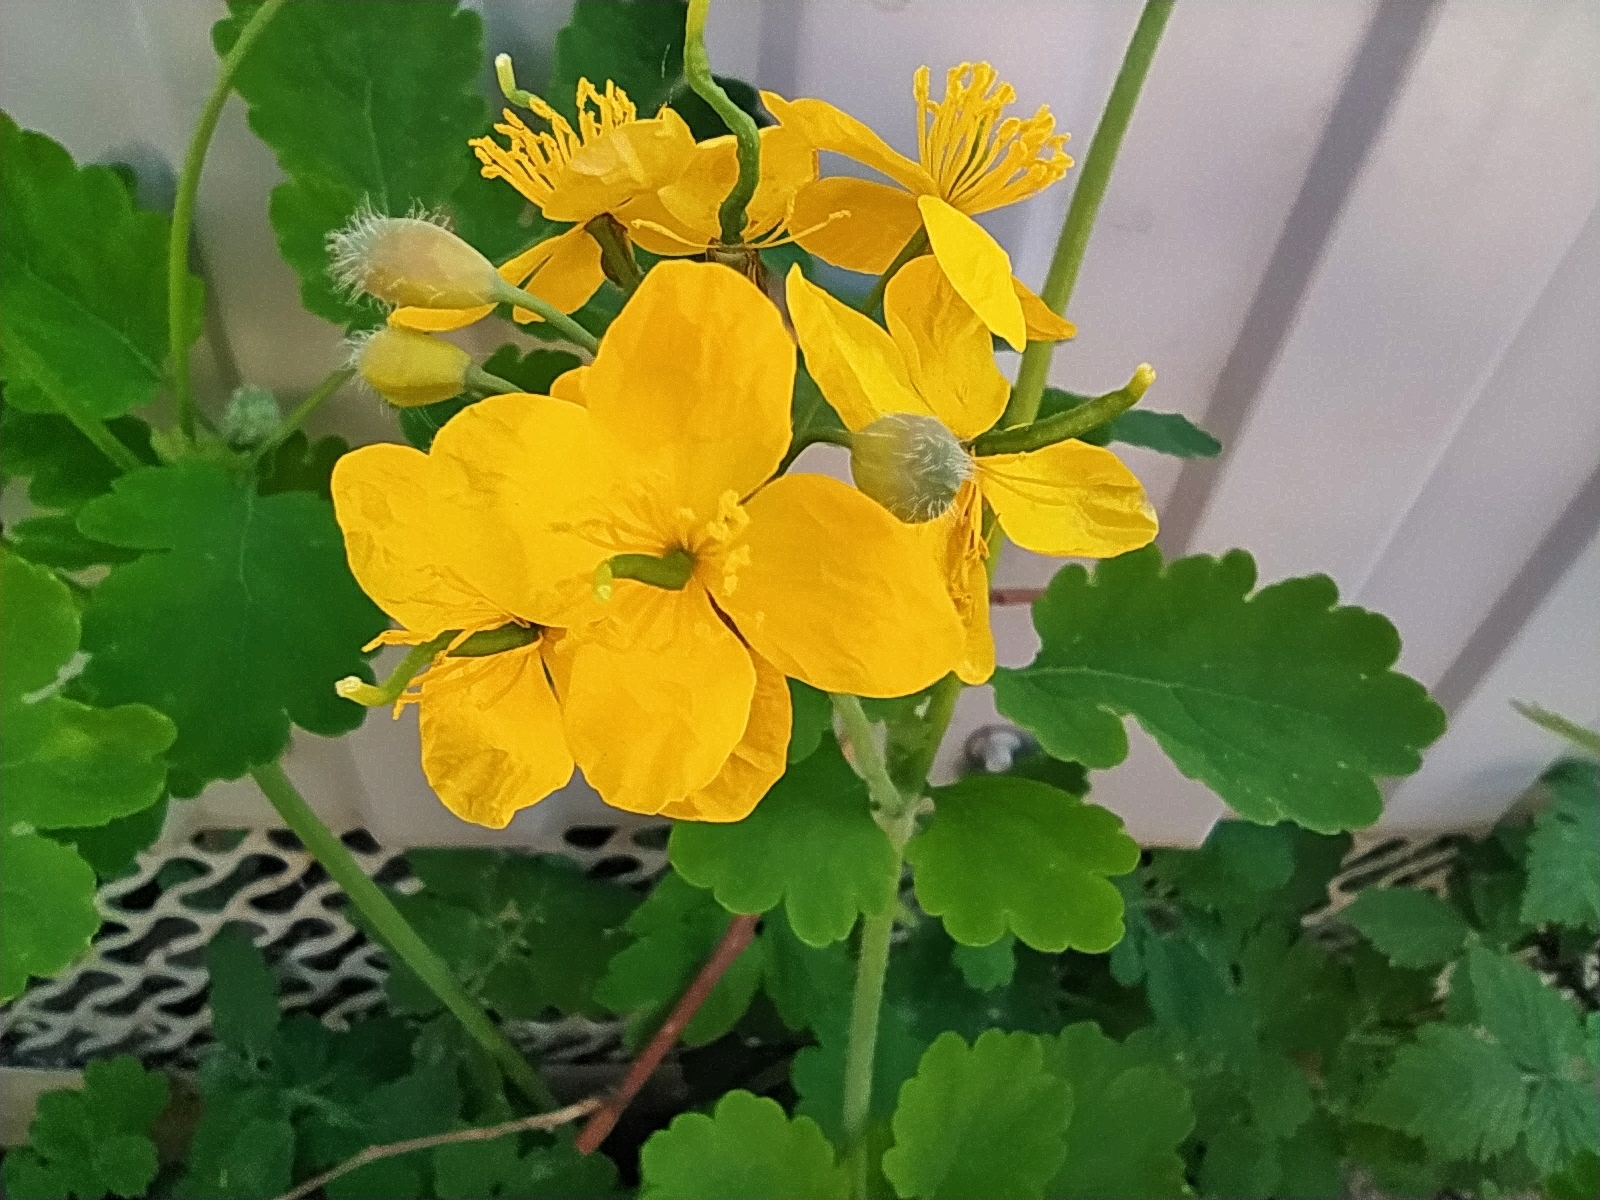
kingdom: Plantae
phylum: Tracheophyta
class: Magnoliopsida
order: Ranunculales
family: Papaveraceae
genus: Chelidonium
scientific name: Chelidonium majus
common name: Greater celandine
